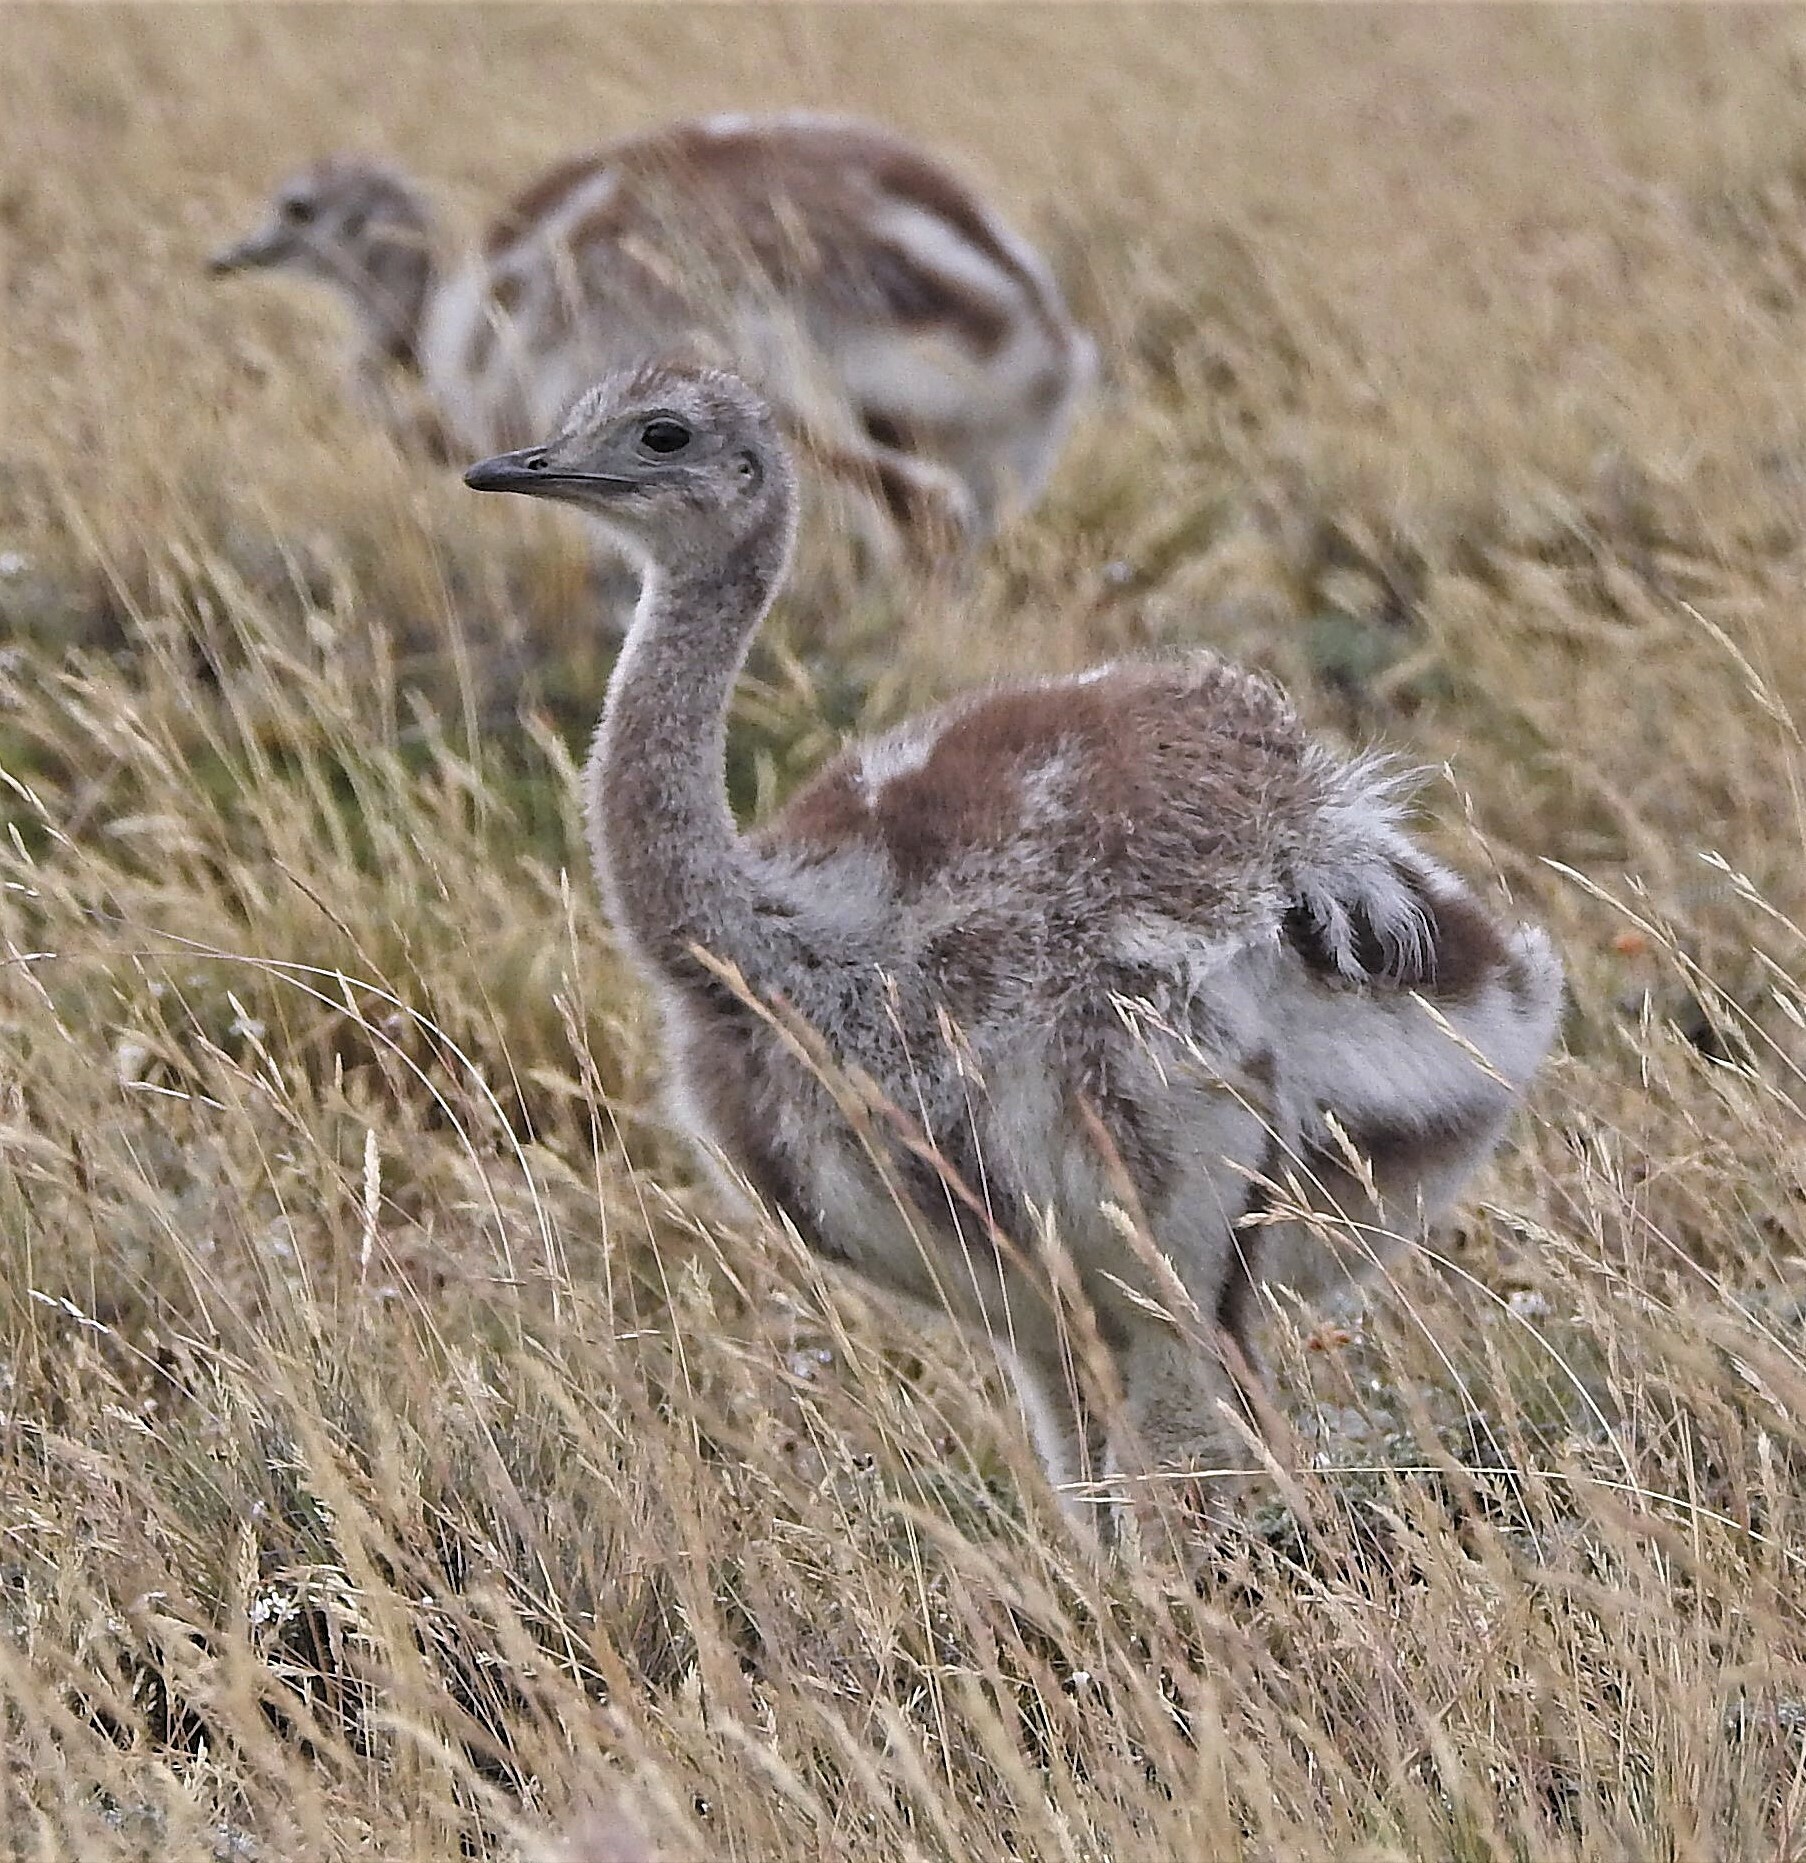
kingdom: Animalia
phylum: Chordata
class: Aves
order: Rheiformes
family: Rheidae
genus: Rhea
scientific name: Rhea pennata
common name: Lesser rhea
